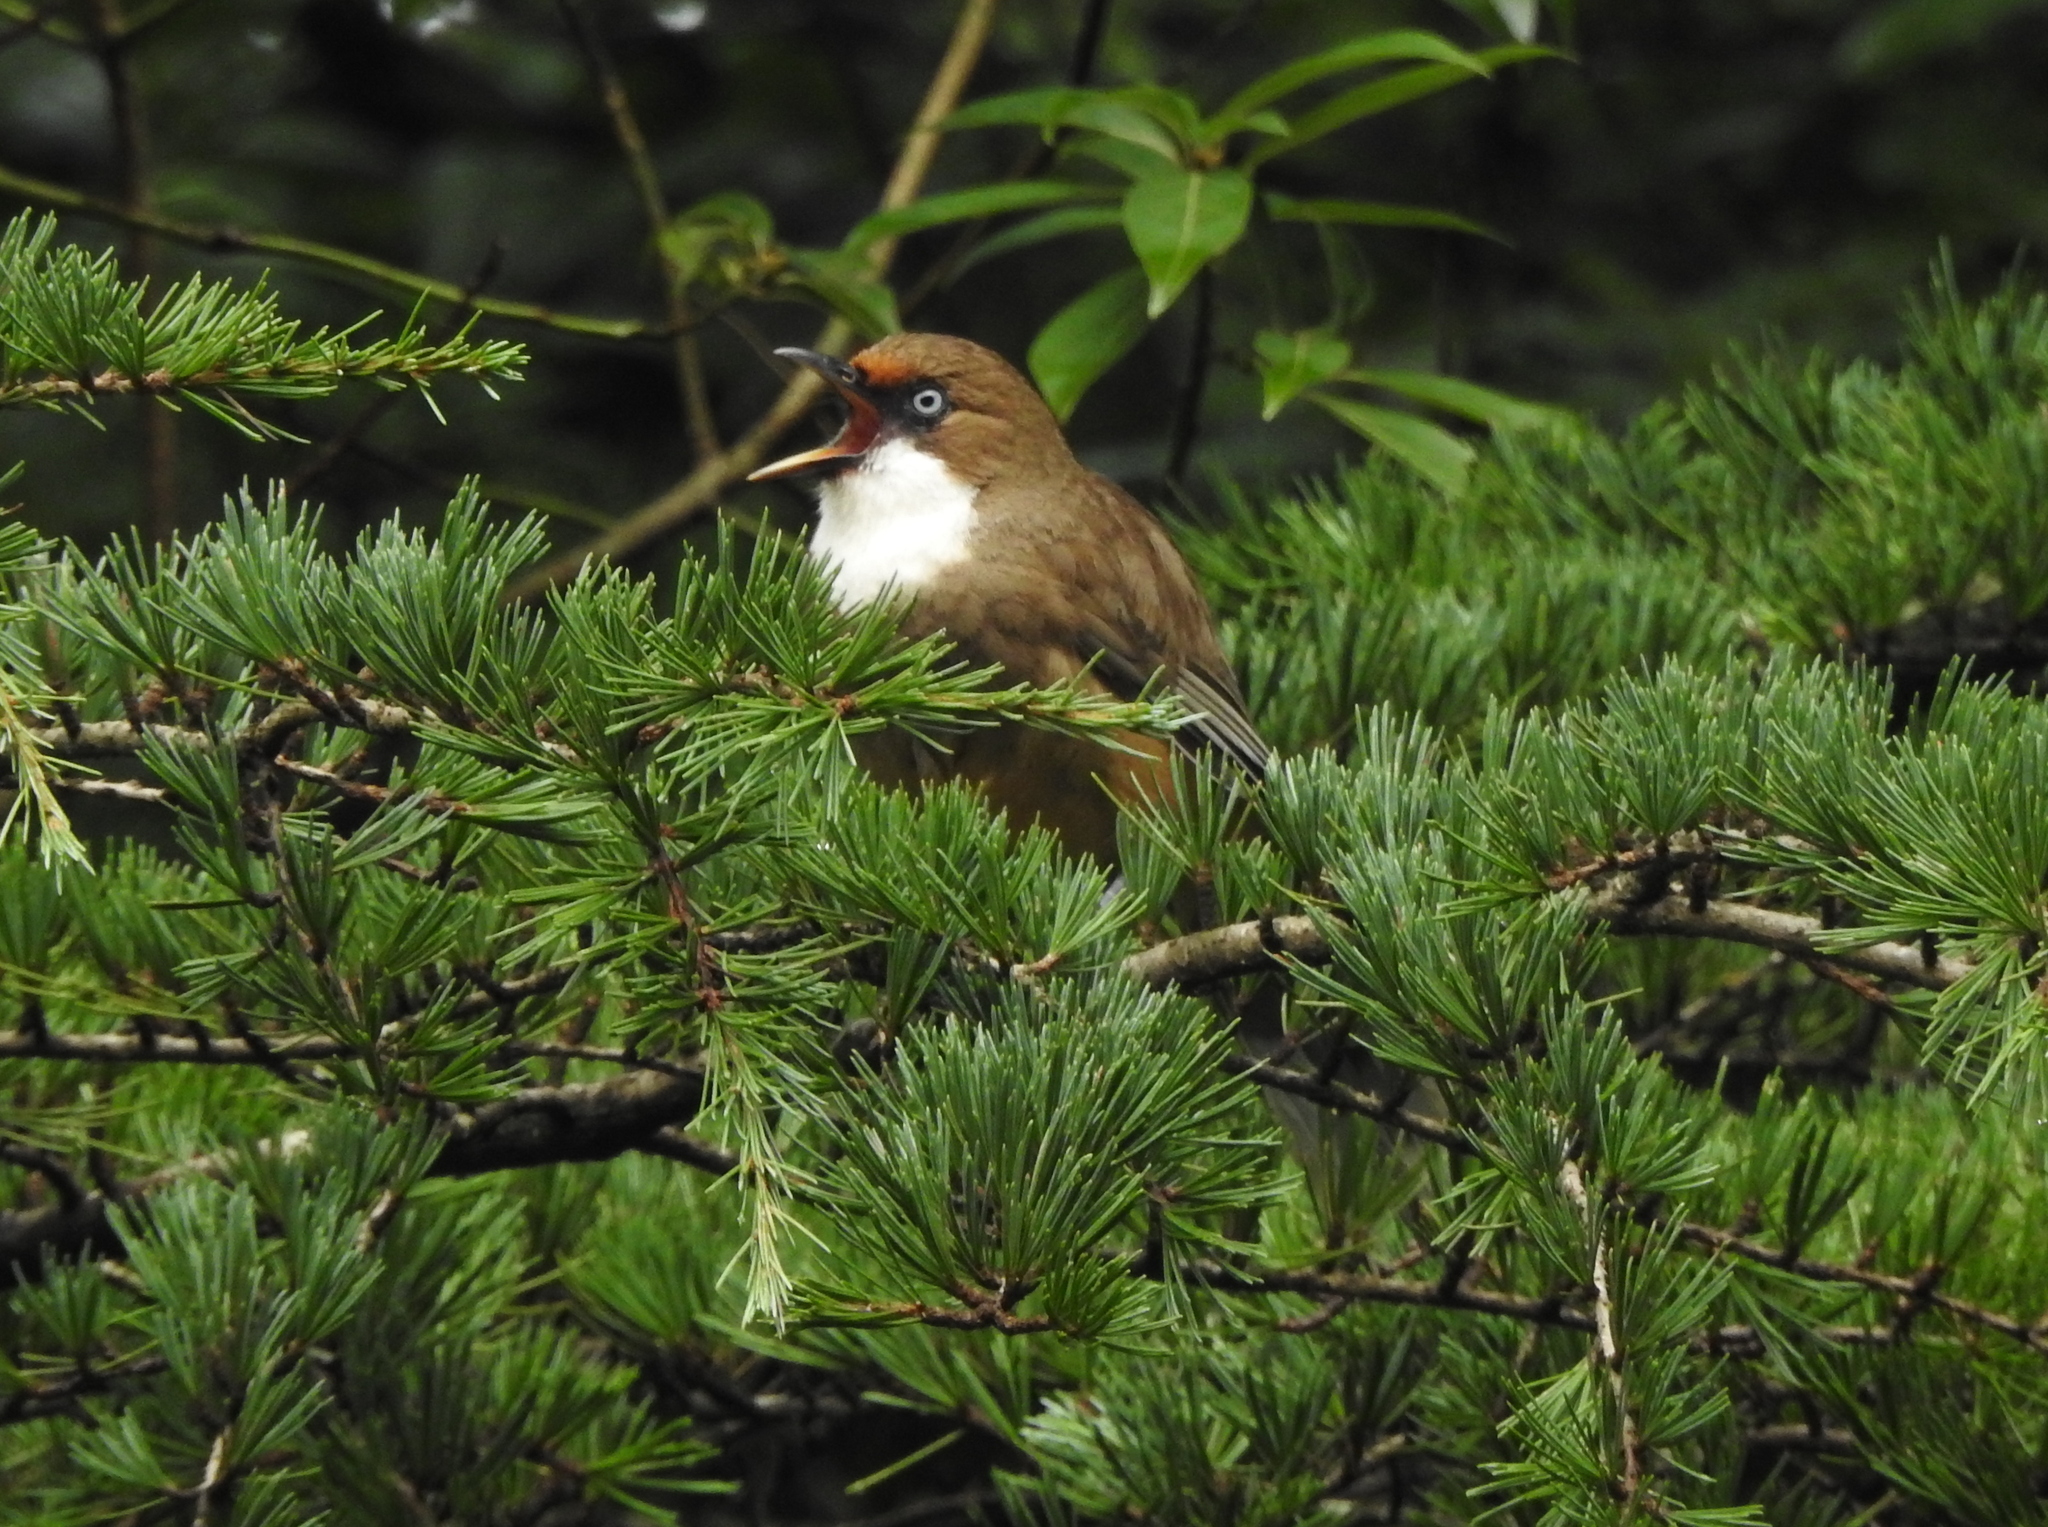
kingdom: Animalia
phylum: Chordata
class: Aves
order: Passeriformes
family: Leiothrichidae
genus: Garrulax
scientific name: Garrulax albogularis
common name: White-throated laughingthrush
